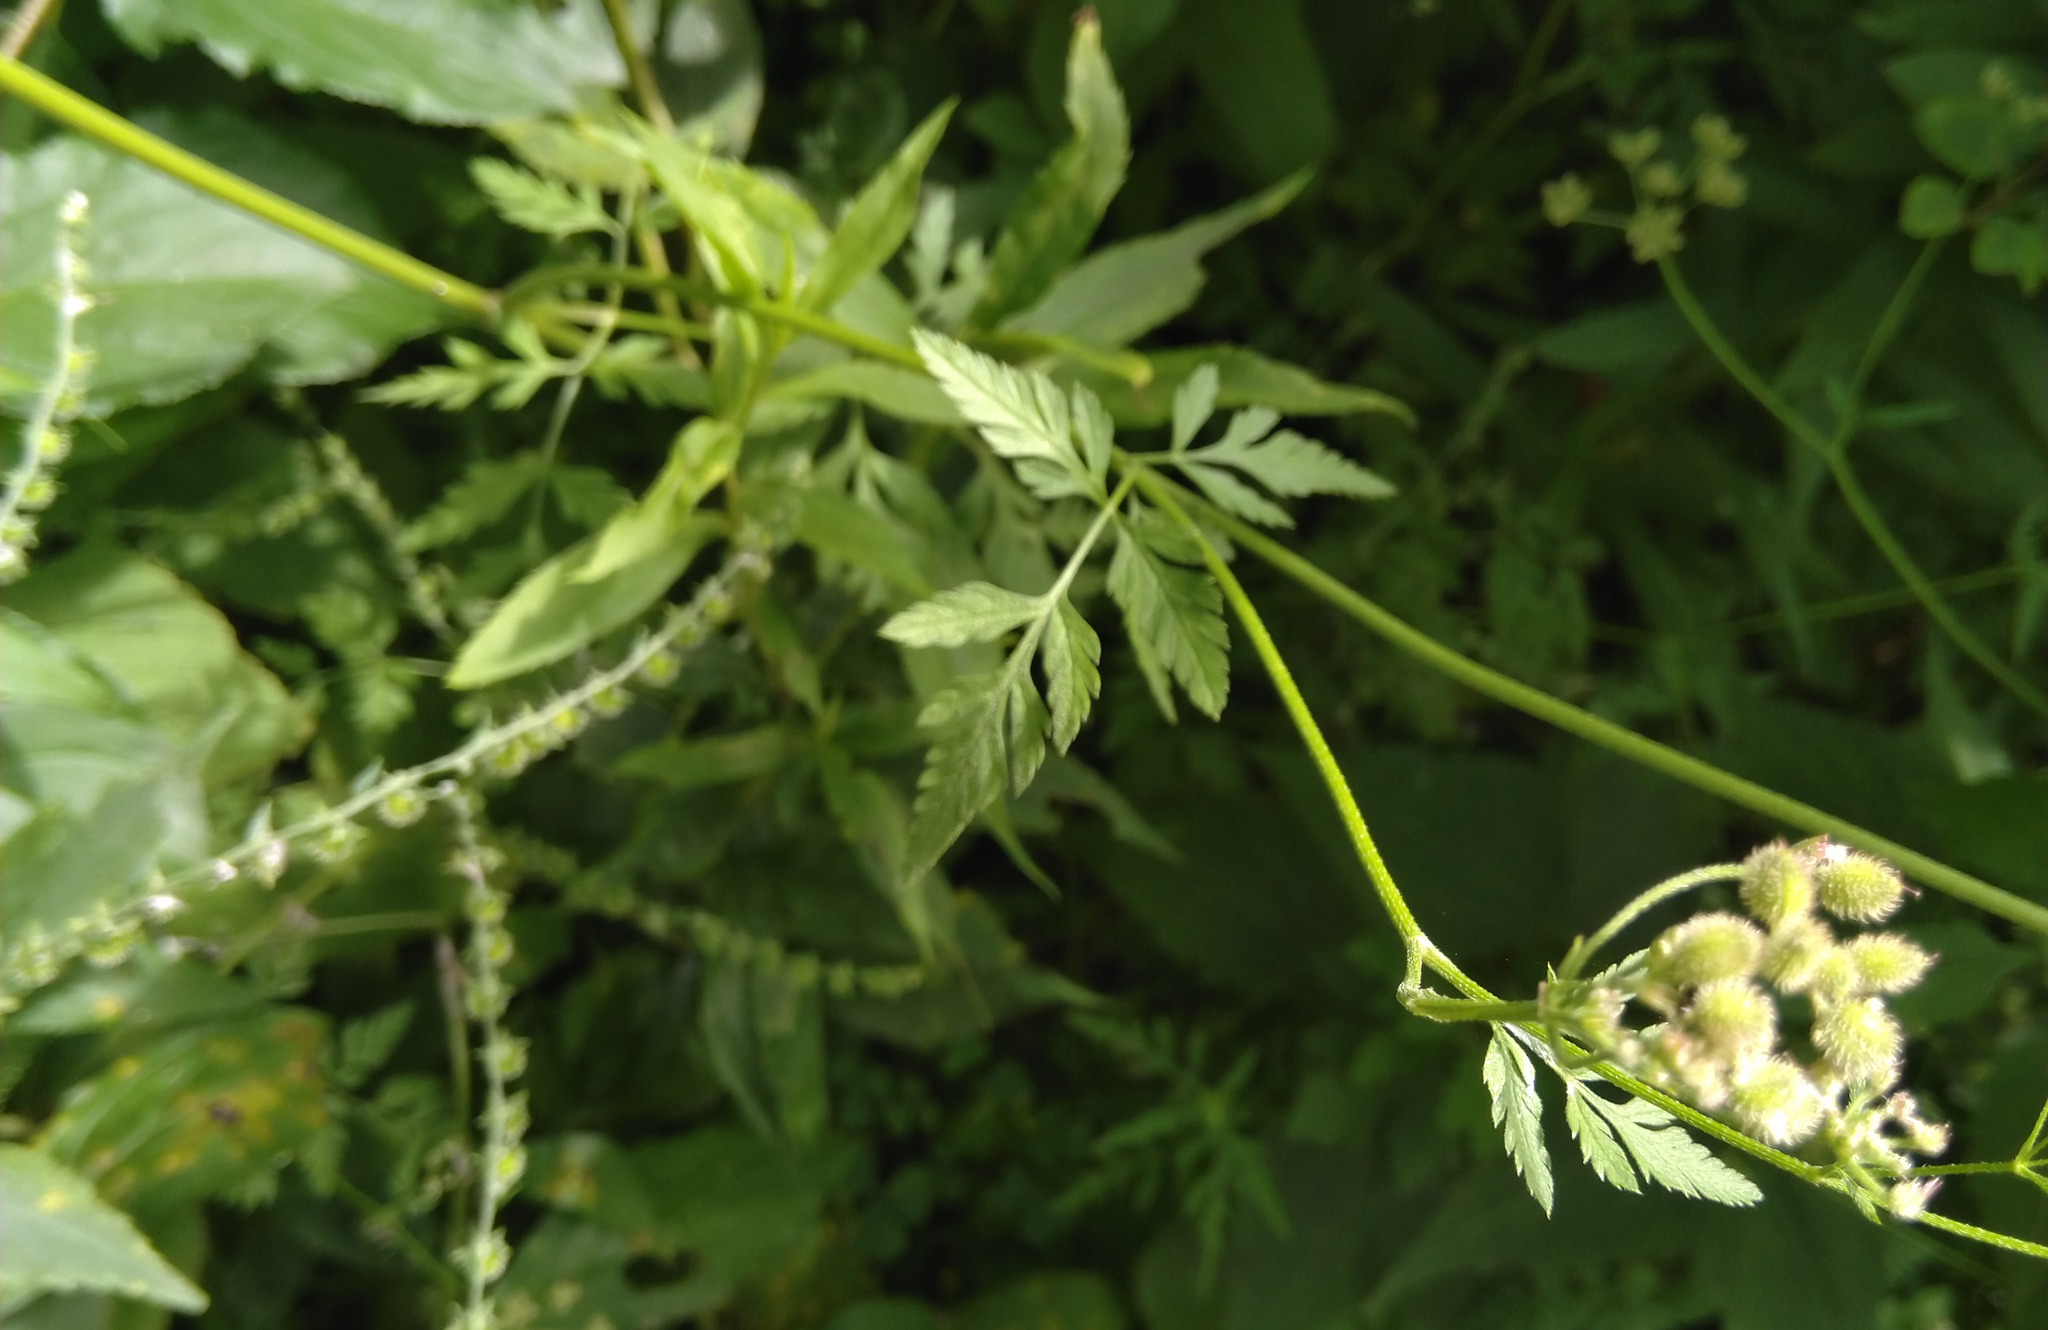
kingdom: Plantae
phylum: Tracheophyta
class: Magnoliopsida
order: Apiales
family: Apiaceae
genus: Torilis
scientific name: Torilis japonica
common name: Upright hedge-parsley
